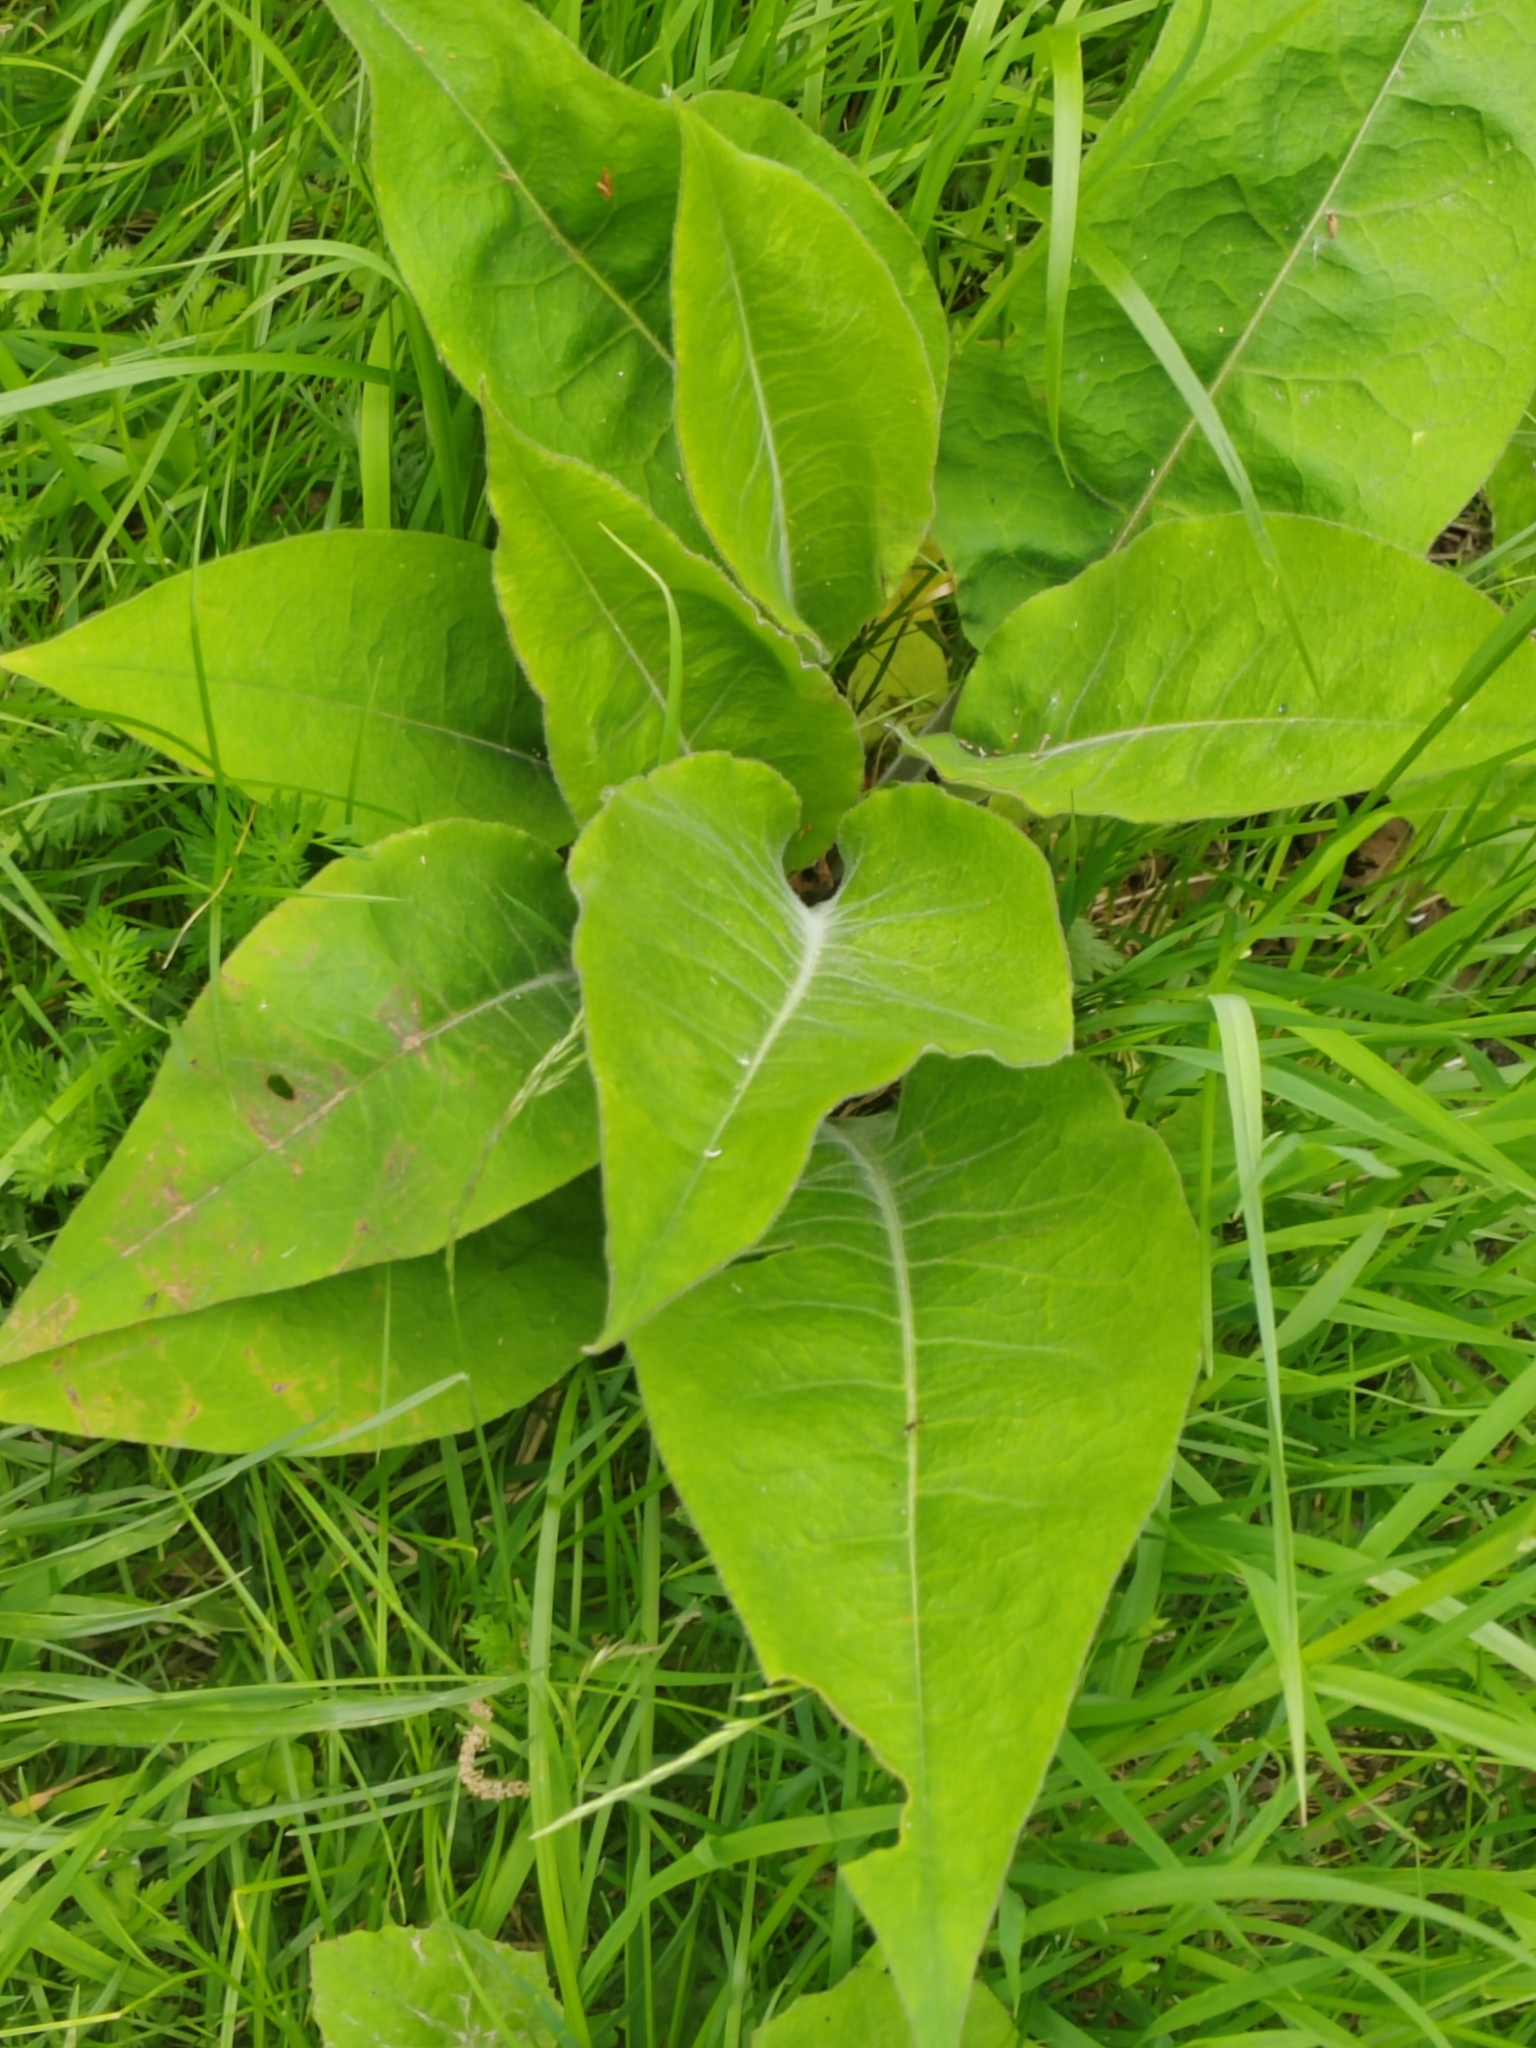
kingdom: Plantae
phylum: Tracheophyta
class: Magnoliopsida
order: Boraginales
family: Boraginaceae
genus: Pulmonaria
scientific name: Pulmonaria mollis
